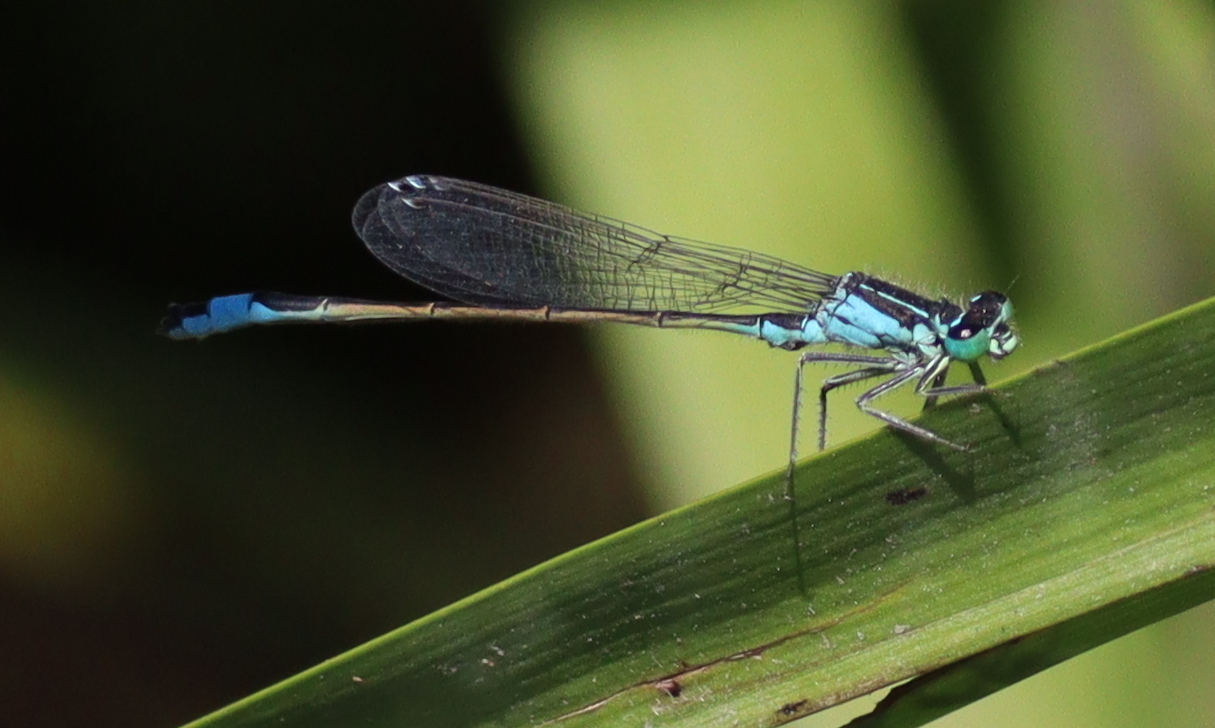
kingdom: Animalia
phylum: Arthropoda
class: Insecta
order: Odonata
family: Coenagrionidae
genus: Ischnura
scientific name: Ischnura elegans
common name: Blue-tailed damselfly
